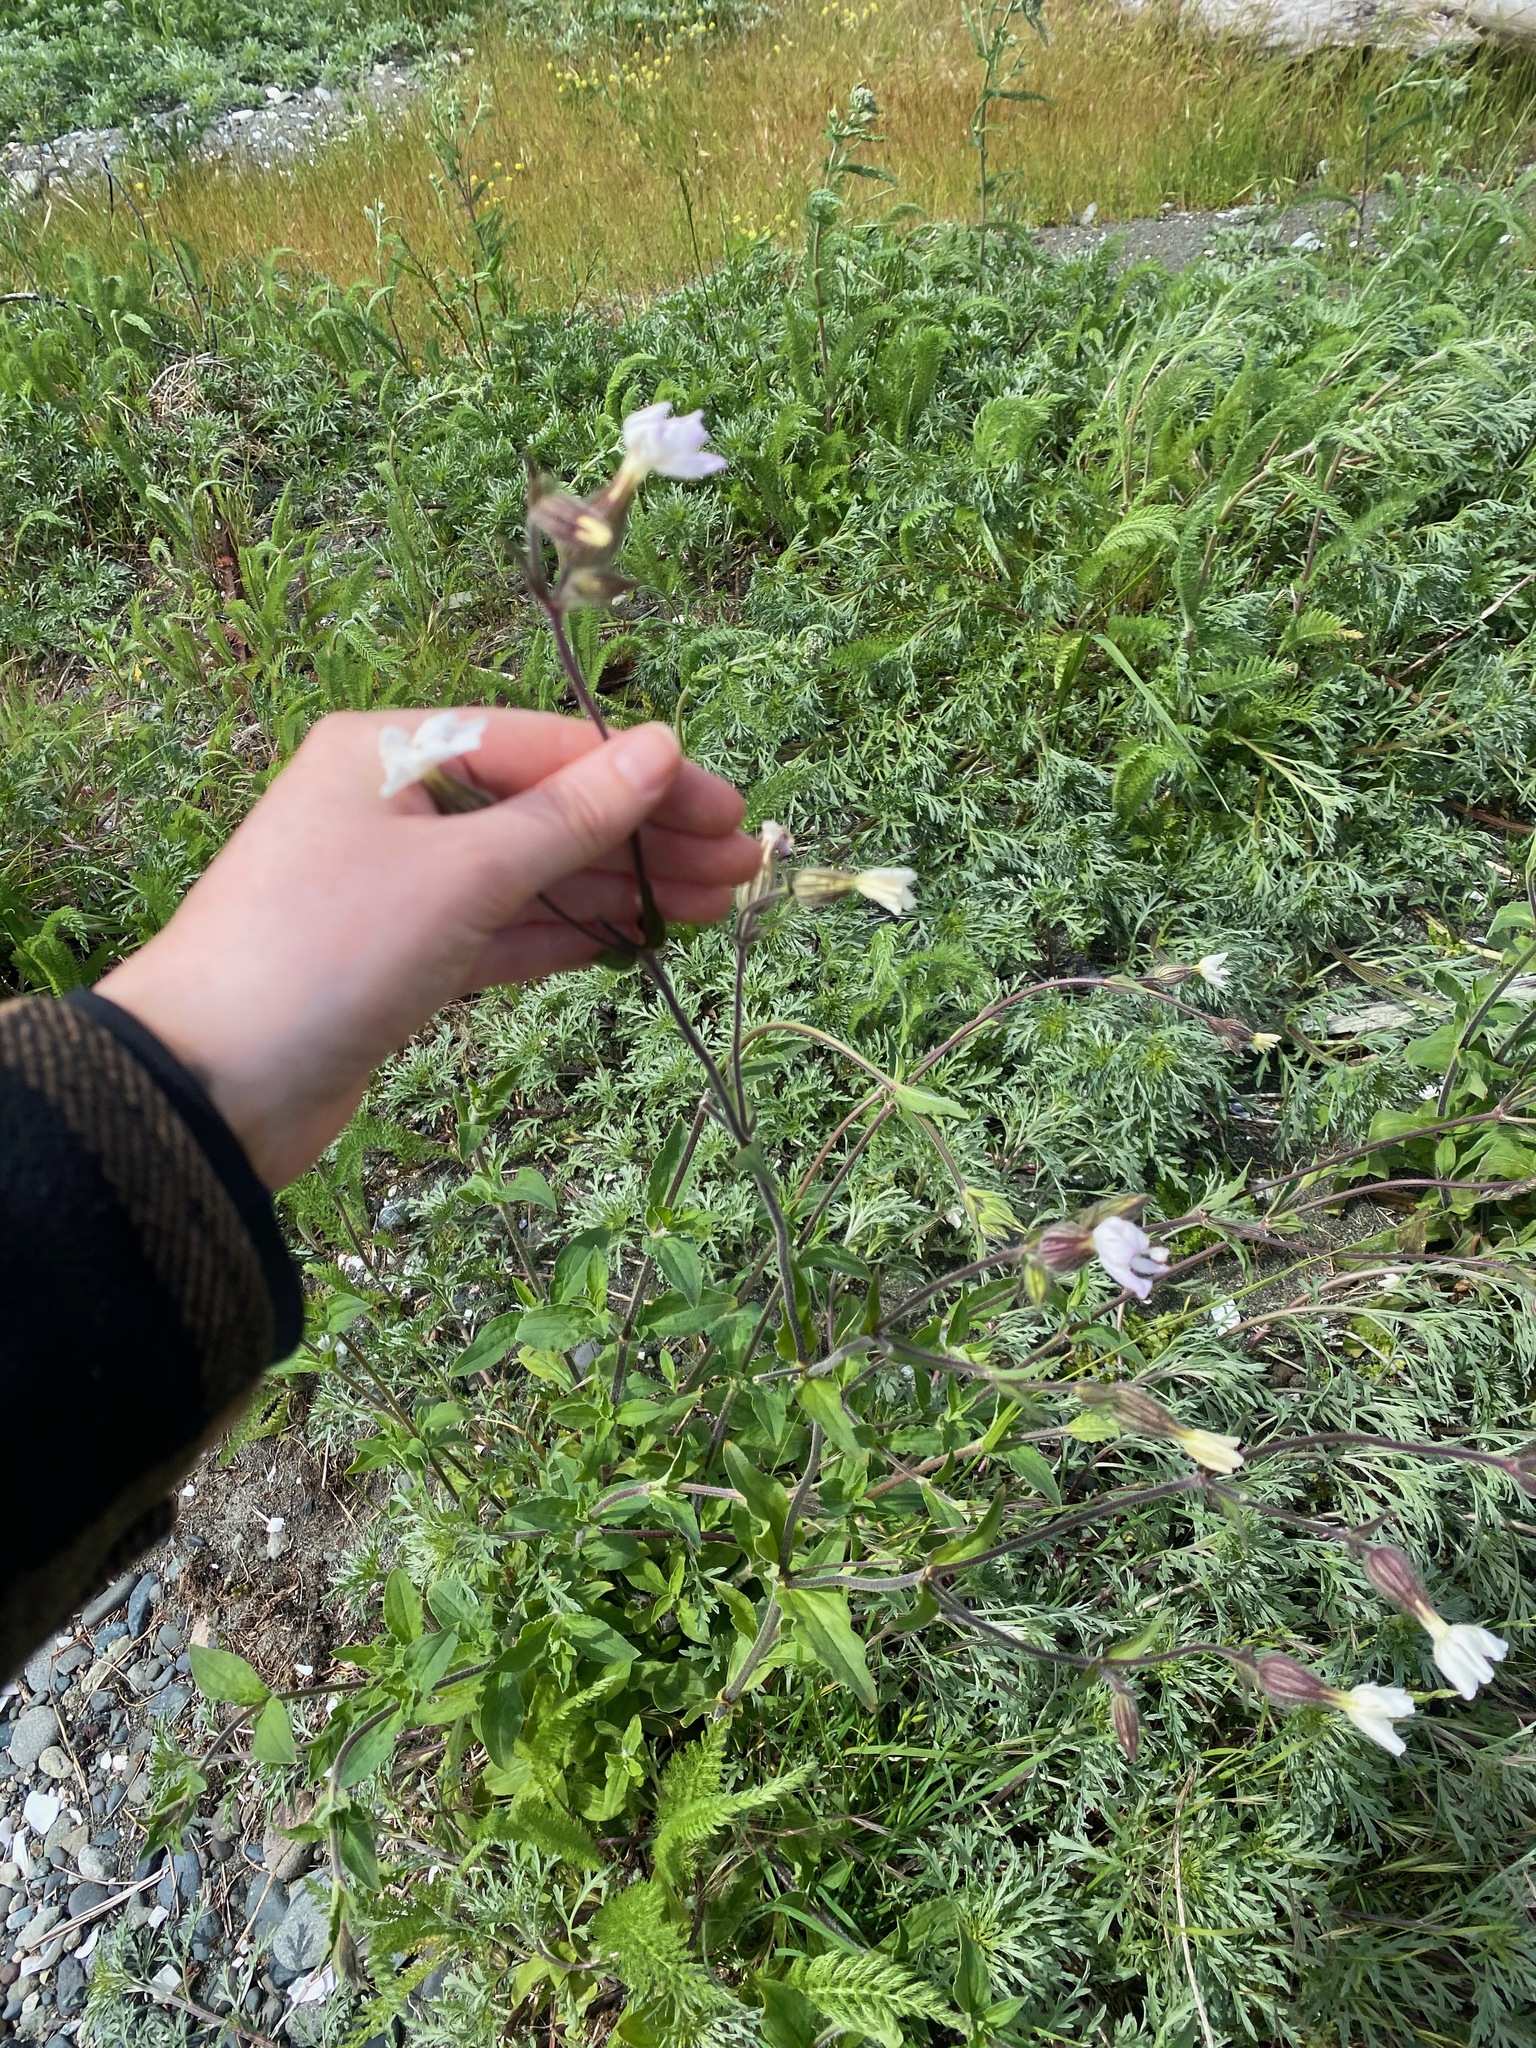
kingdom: Plantae
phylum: Tracheophyta
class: Magnoliopsida
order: Caryophyllales
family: Caryophyllaceae
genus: Silene
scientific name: Silene latifolia
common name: White campion
